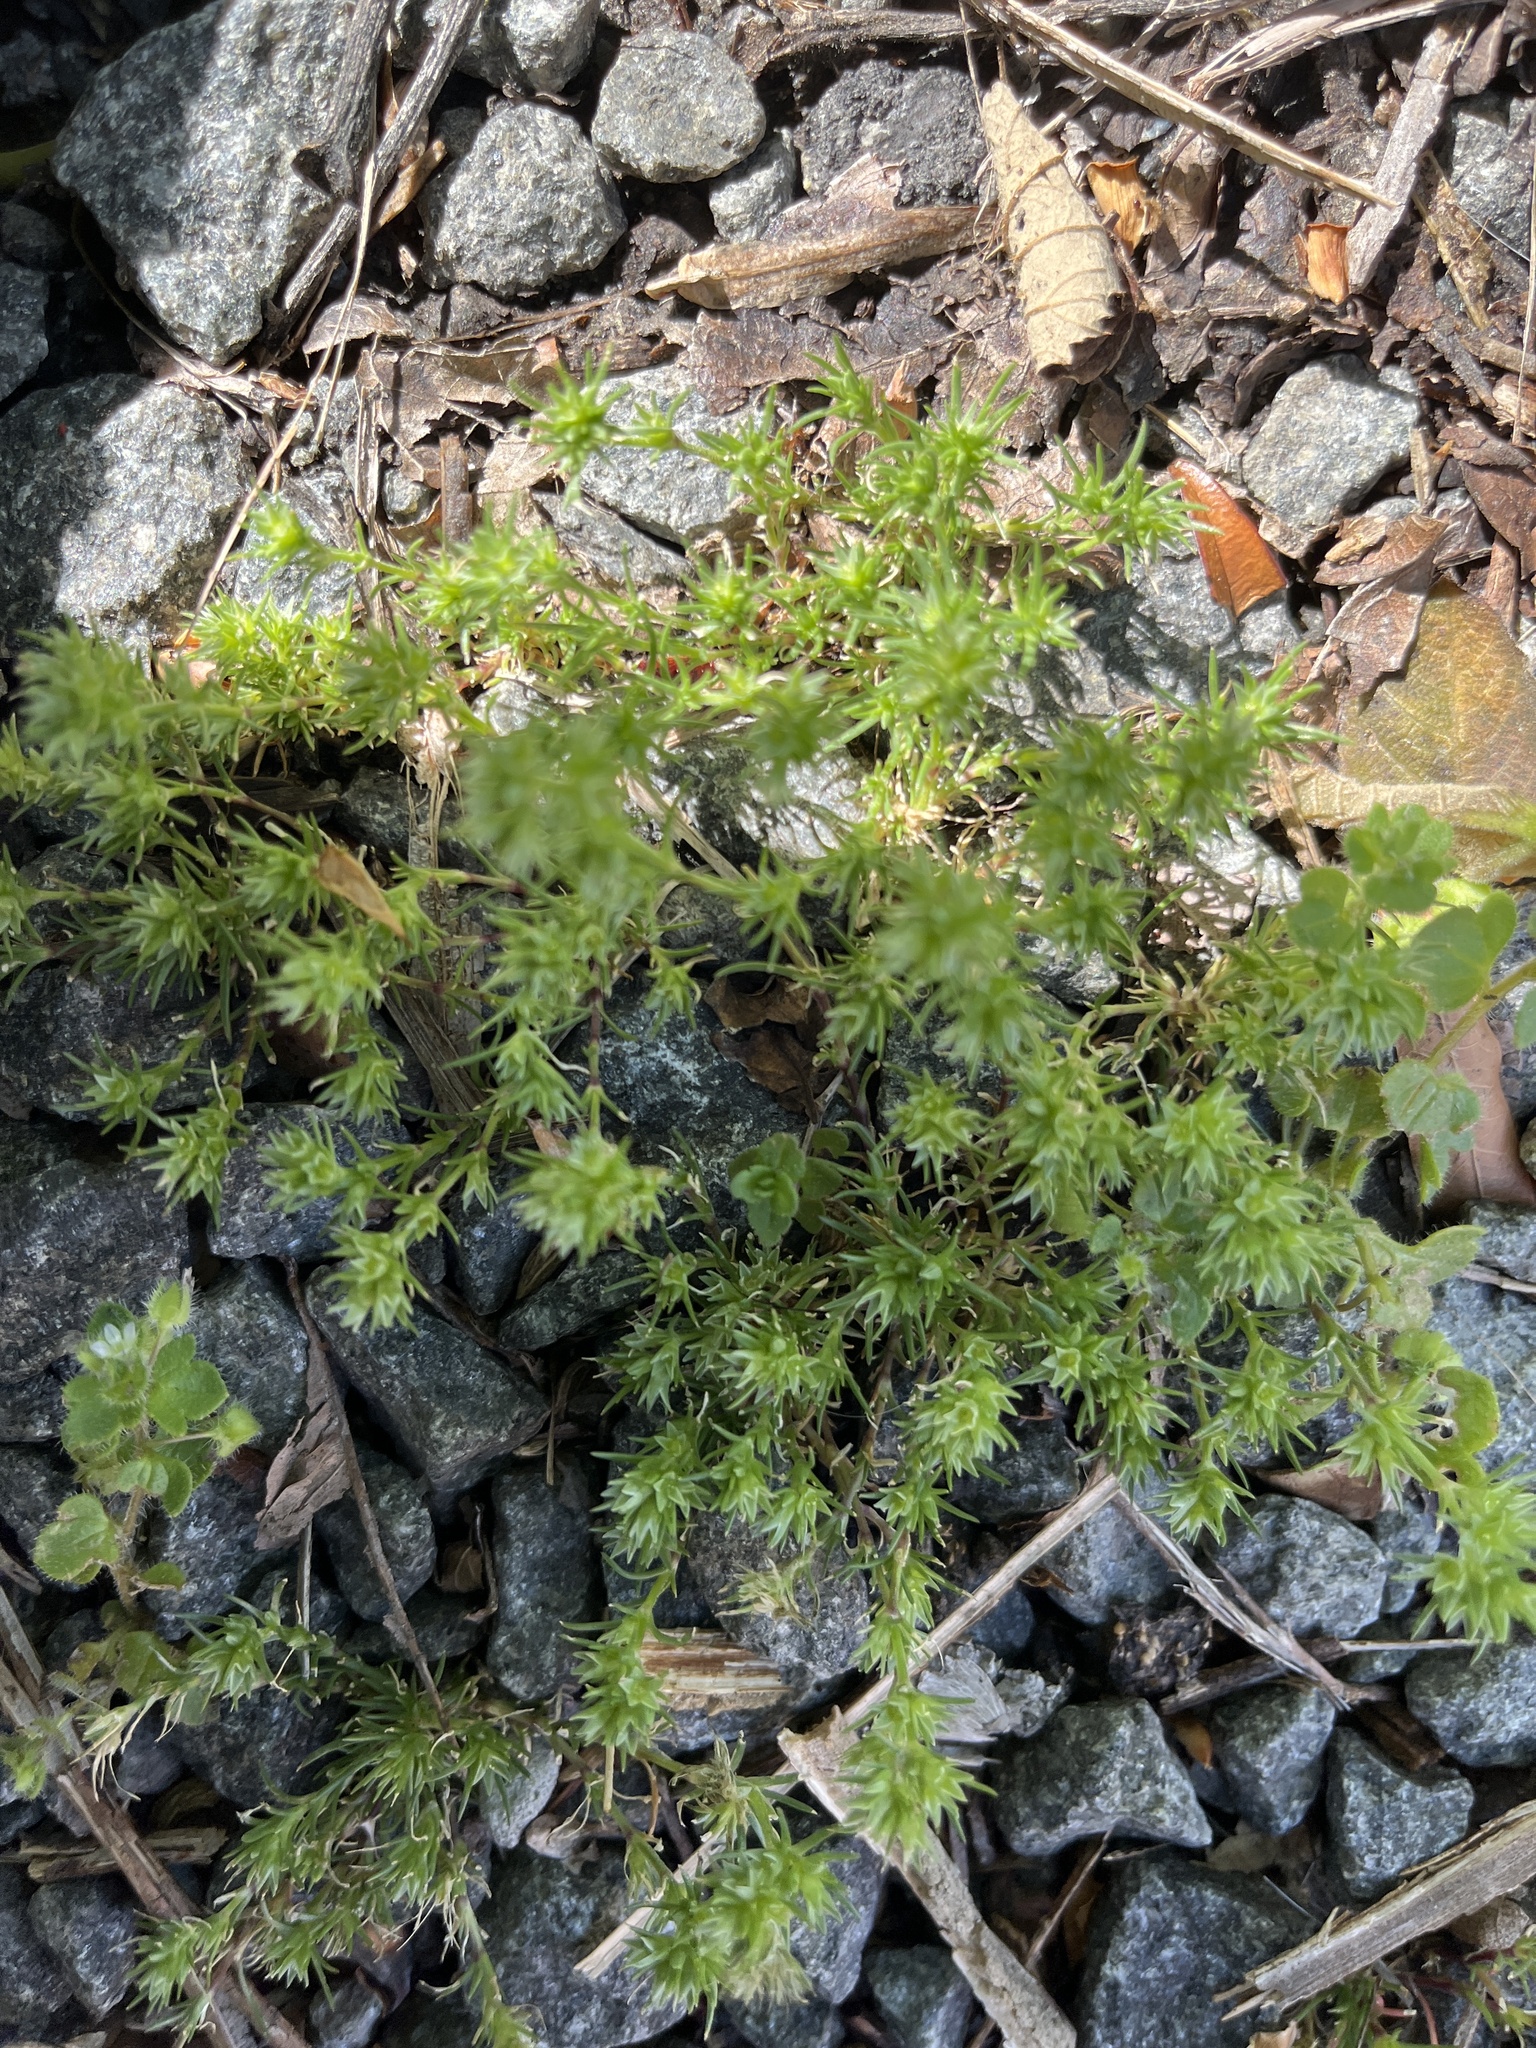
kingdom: Plantae
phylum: Tracheophyta
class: Magnoliopsida
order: Caryophyllales
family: Caryophyllaceae
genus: Scleranthus
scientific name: Scleranthus annuus
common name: Annual knawel
